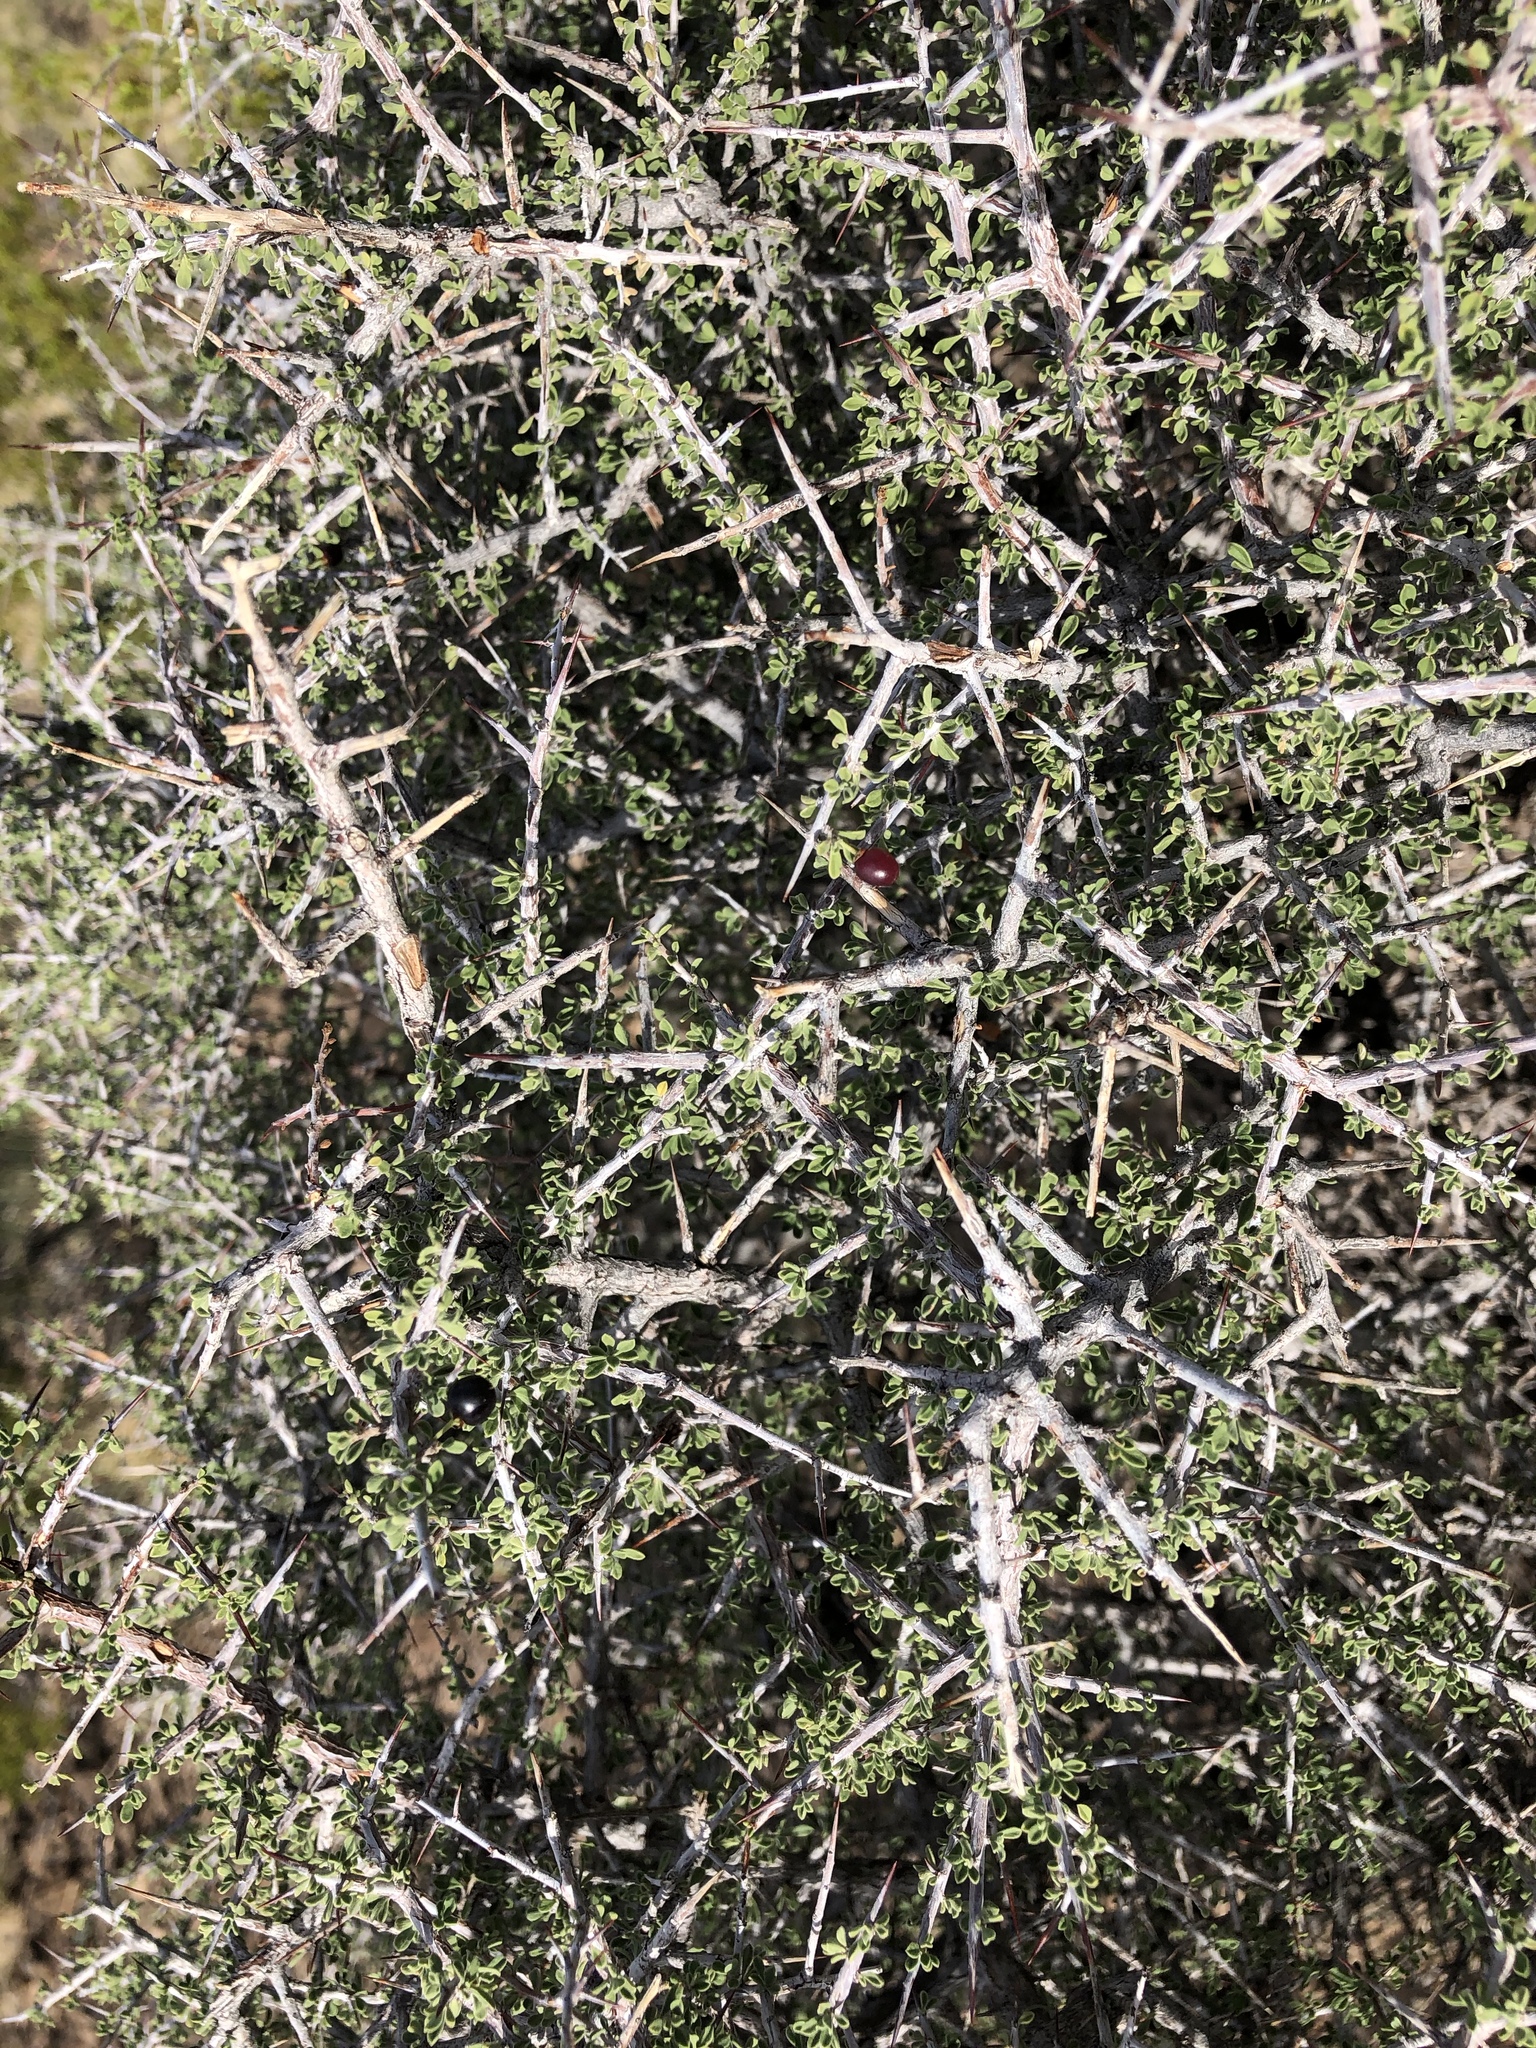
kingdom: Plantae
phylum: Tracheophyta
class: Magnoliopsida
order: Rosales
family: Rhamnaceae
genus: Condalia
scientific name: Condalia warnockii
